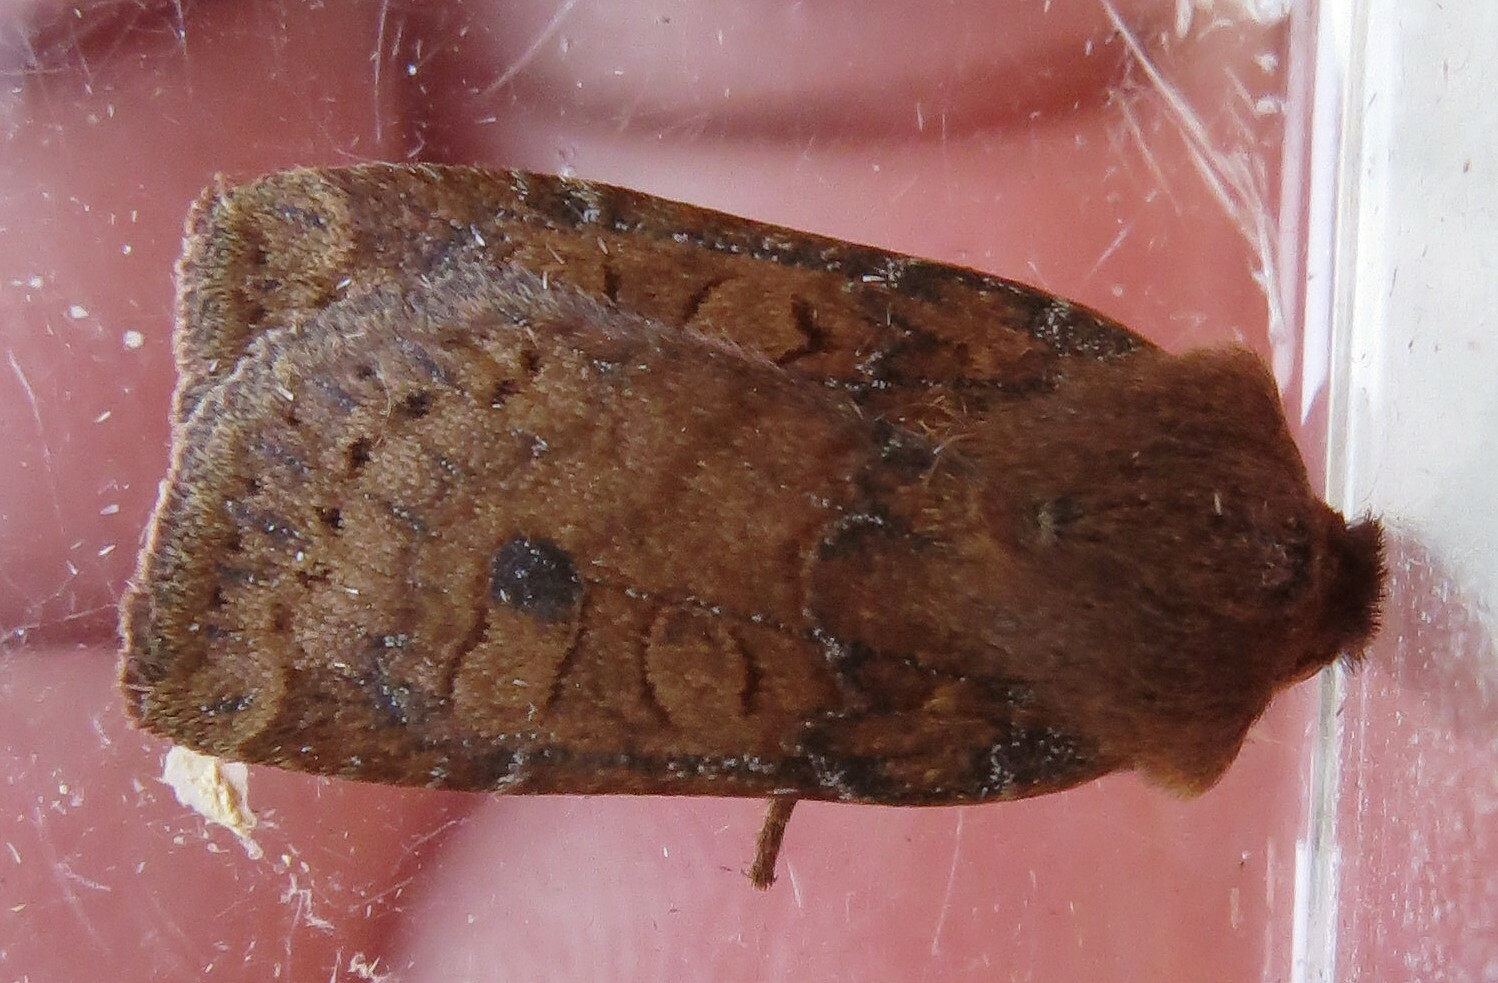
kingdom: Animalia
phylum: Arthropoda
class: Insecta
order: Lepidoptera
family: Noctuidae
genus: Conistra
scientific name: Conistra vaccinii
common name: Chestnut
